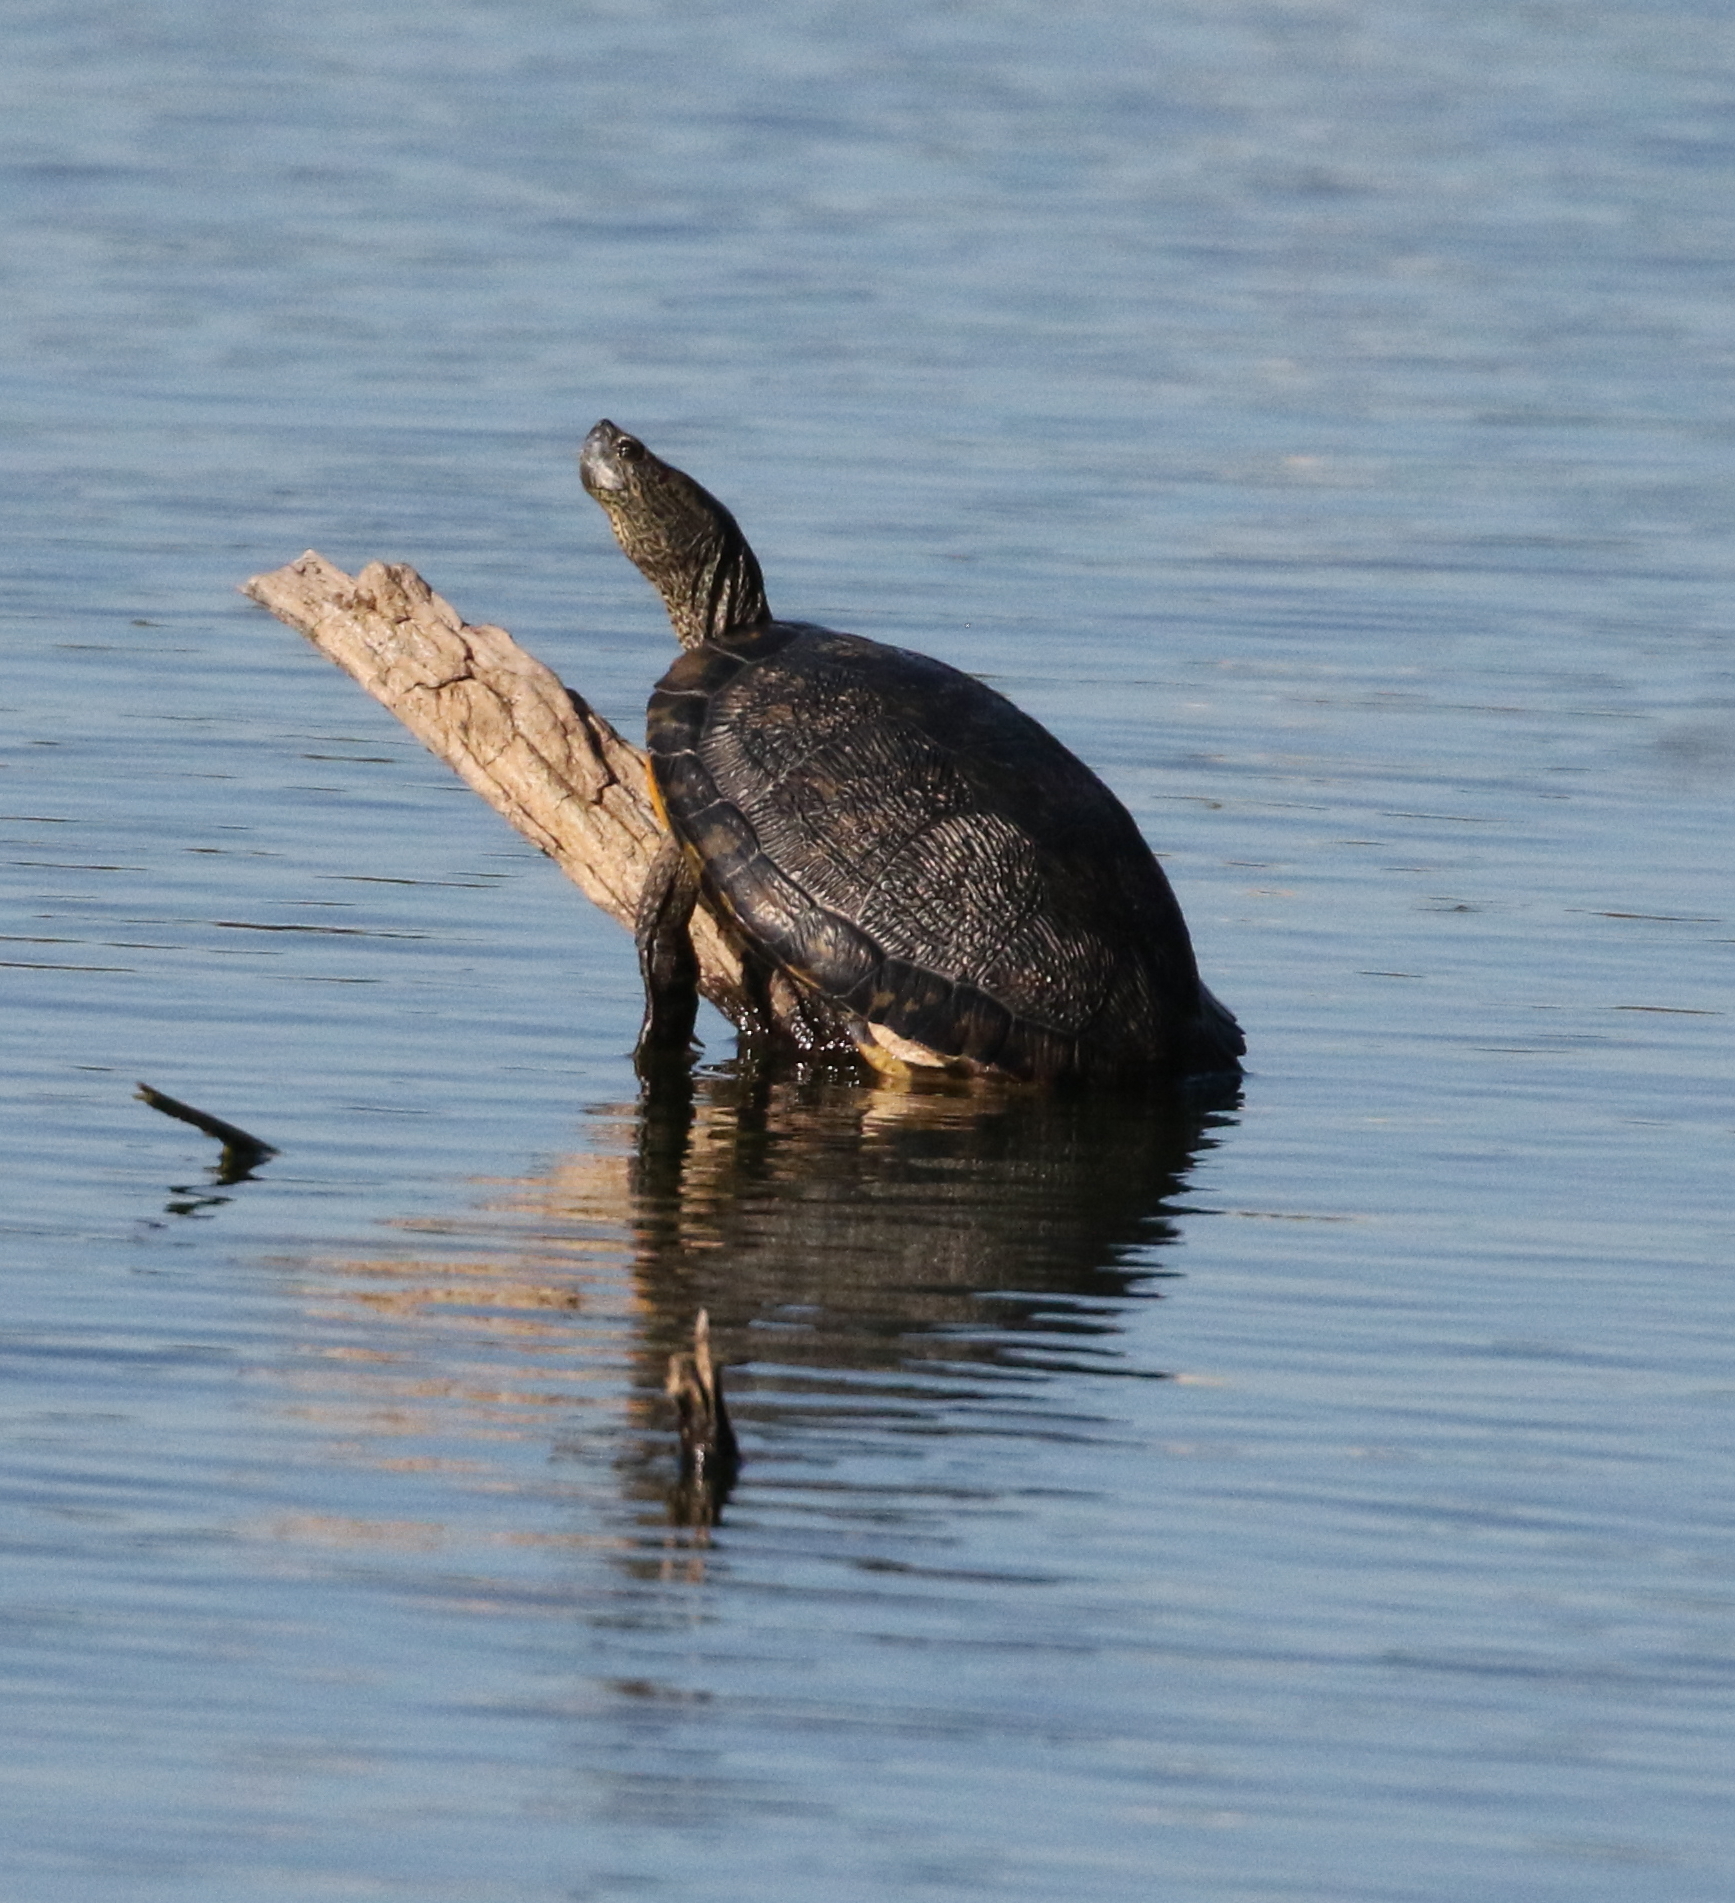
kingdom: Animalia
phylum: Chordata
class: Testudines
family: Emydidae
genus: Pseudemys
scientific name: Pseudemys texana
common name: Texas river cooter
